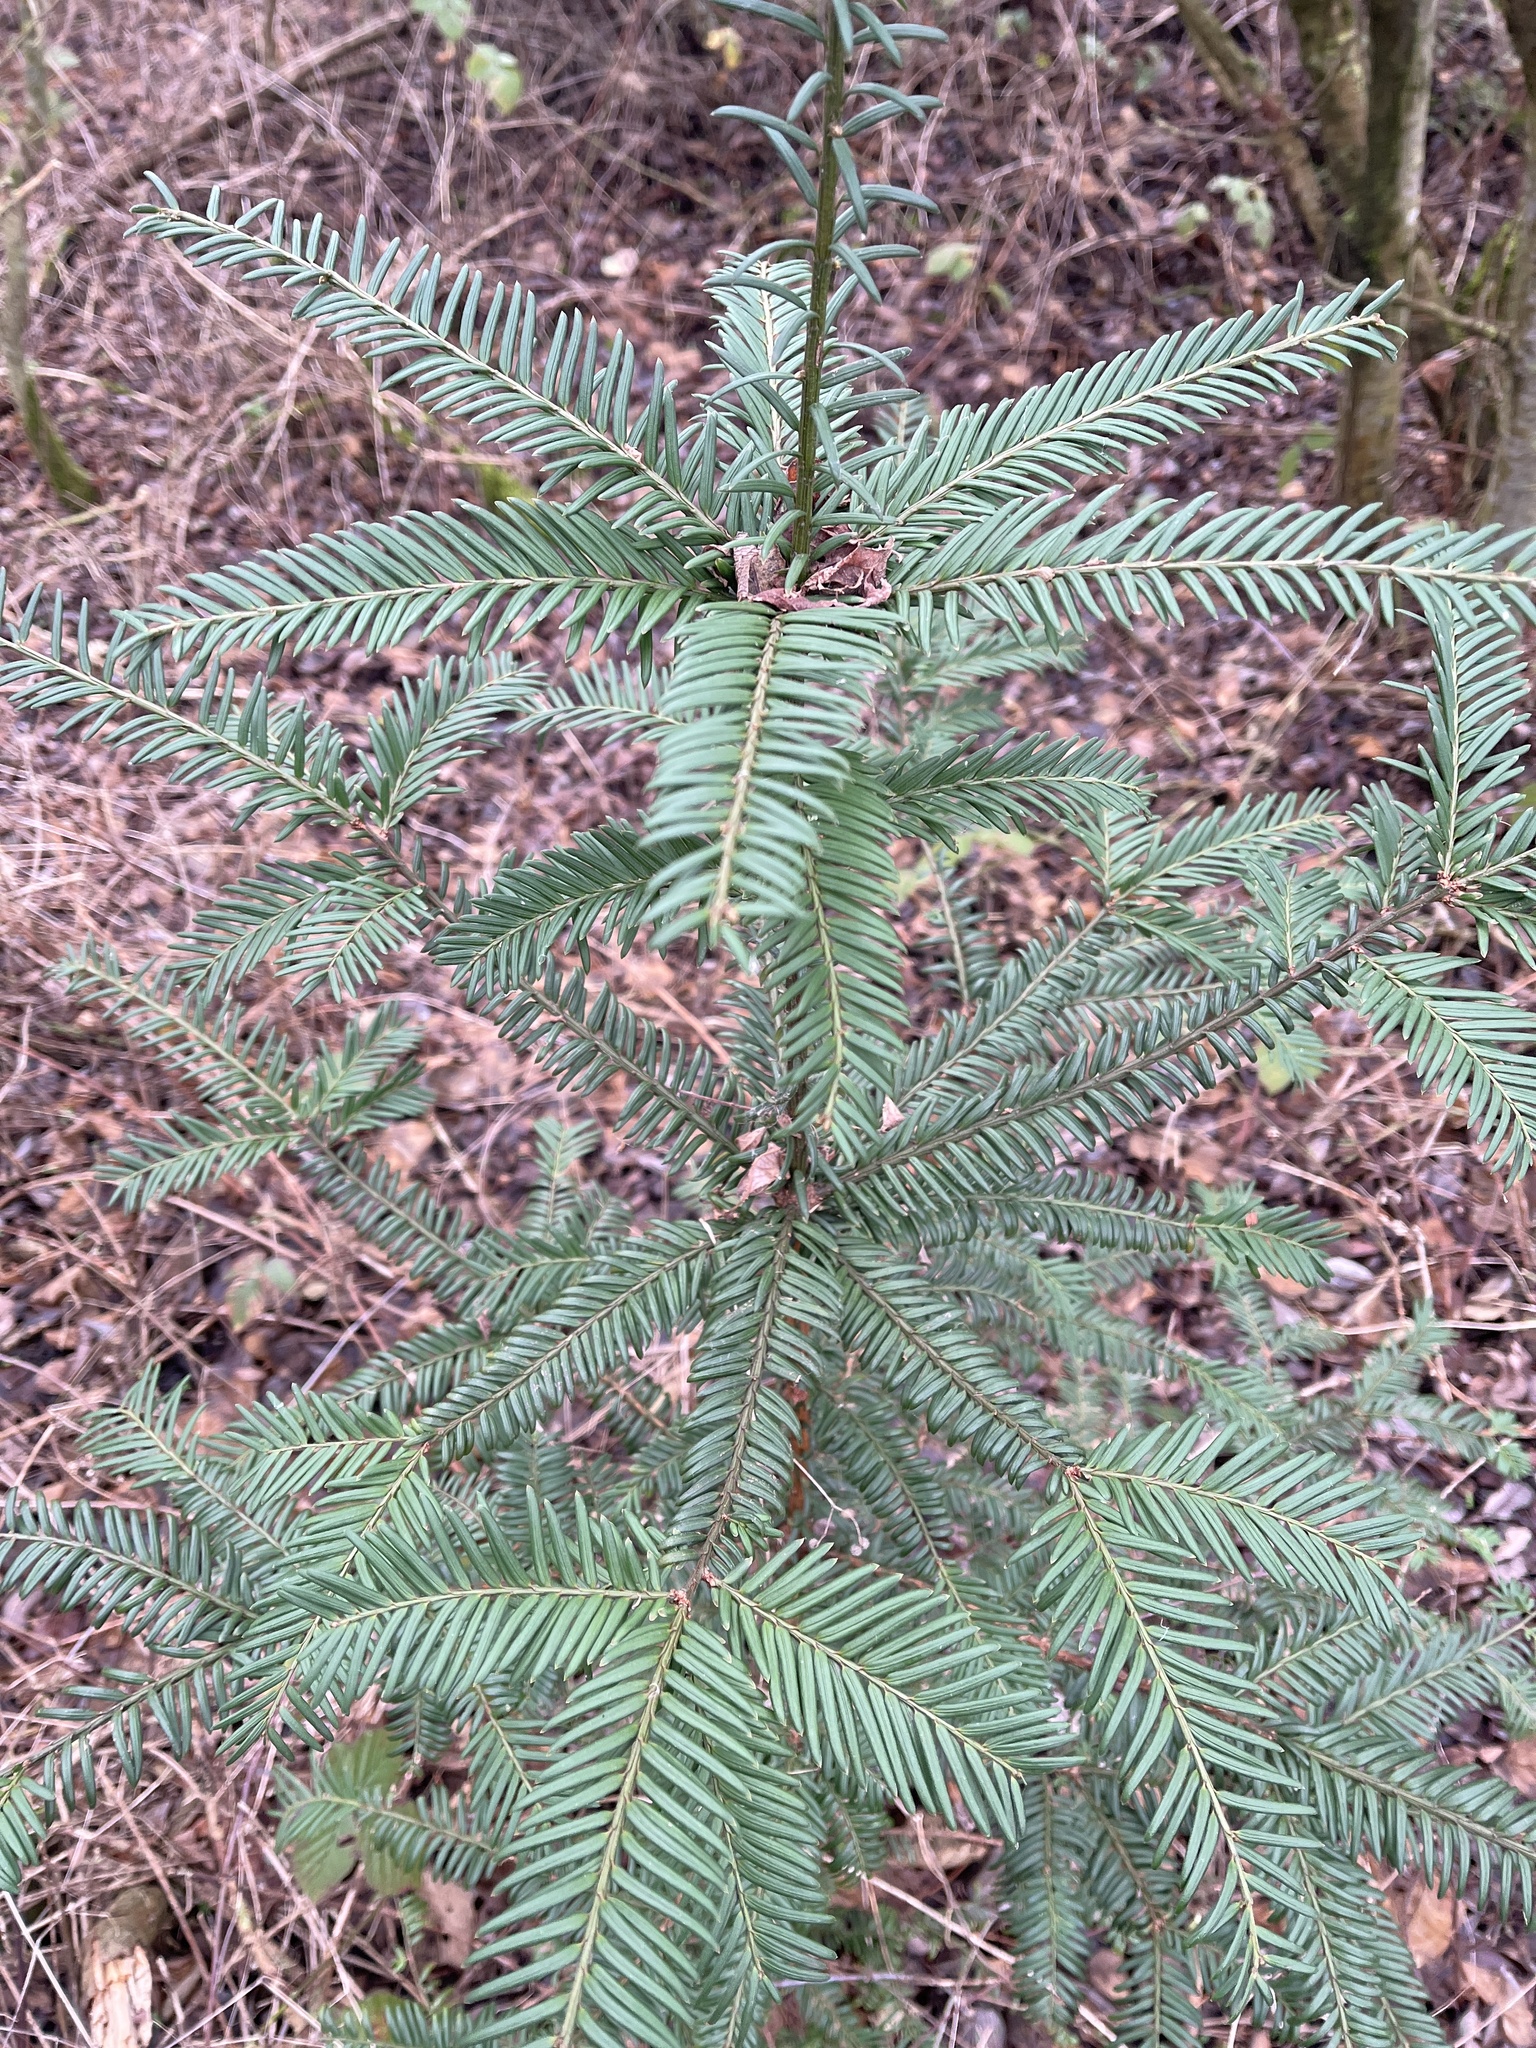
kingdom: Plantae
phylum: Tracheophyta
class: Pinopsida
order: Pinales
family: Taxaceae
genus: Taxus
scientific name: Taxus baccata
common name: Yew
